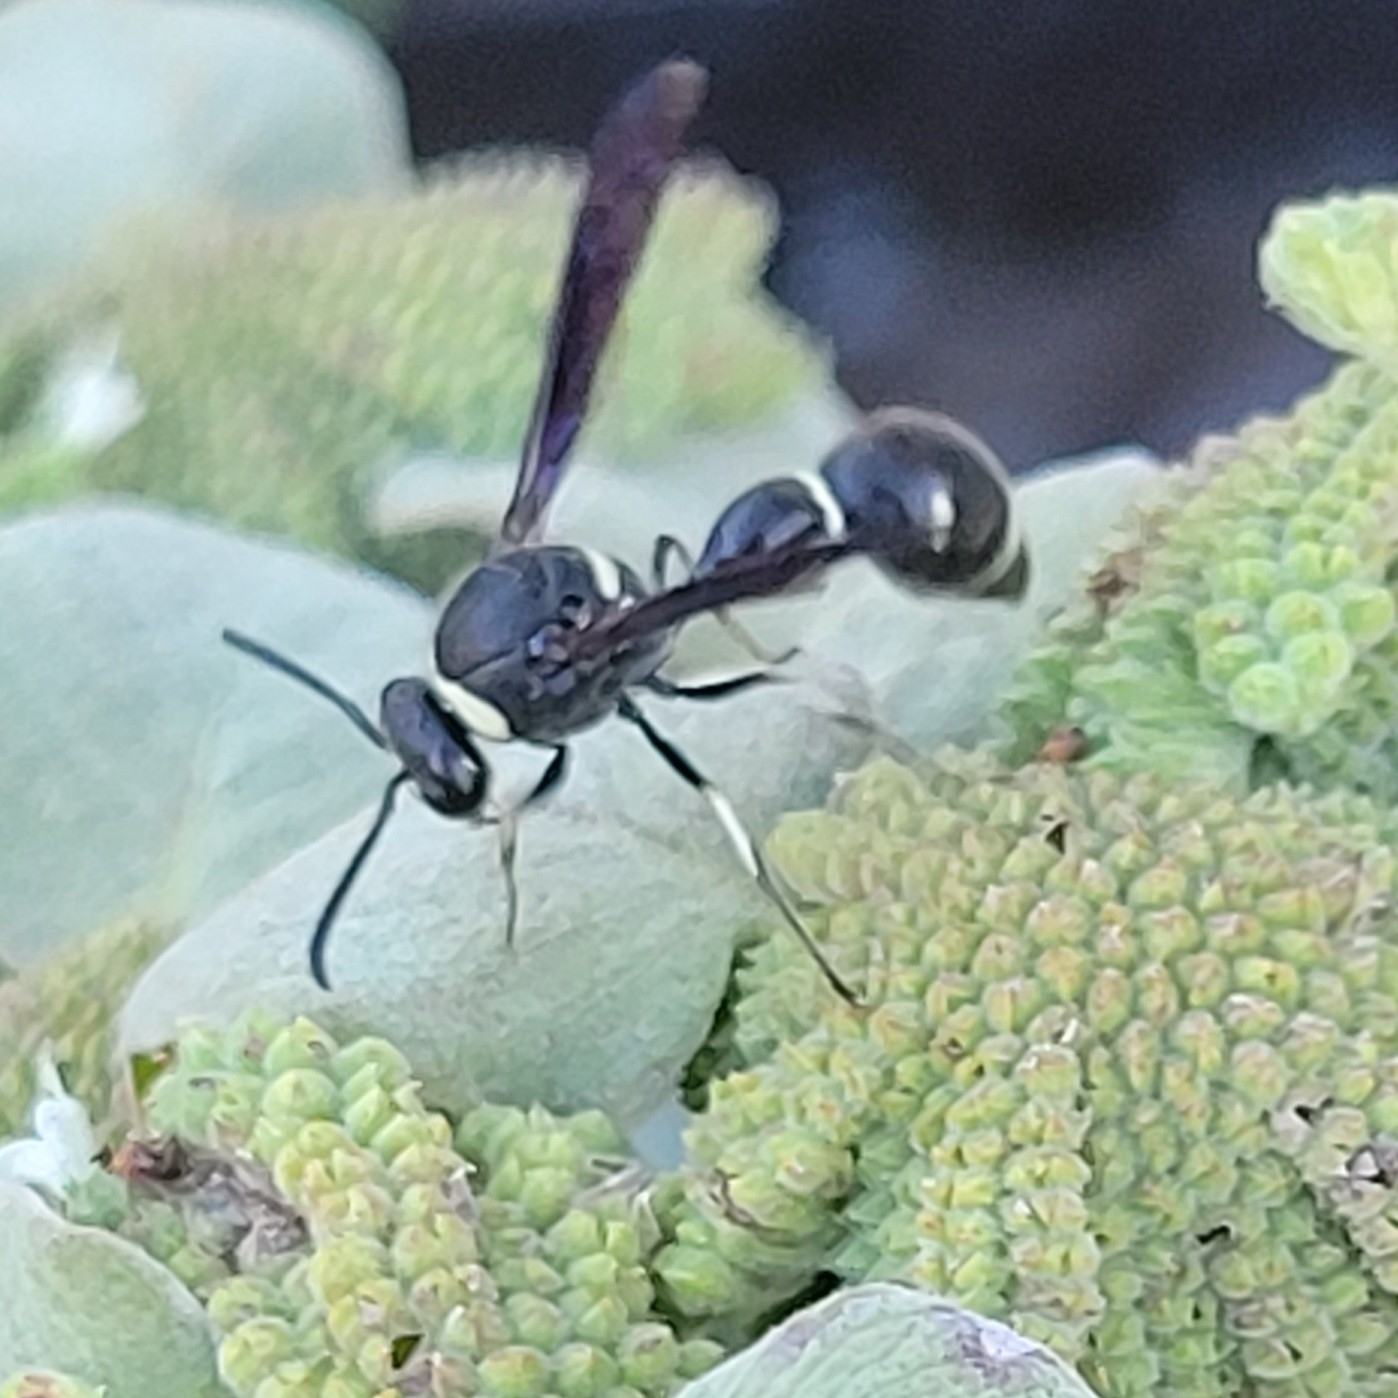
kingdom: Animalia
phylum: Arthropoda
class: Insecta
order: Hymenoptera
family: Vespidae
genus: Eumenes
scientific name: Eumenes fraternus
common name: Fraternal potter wasp
